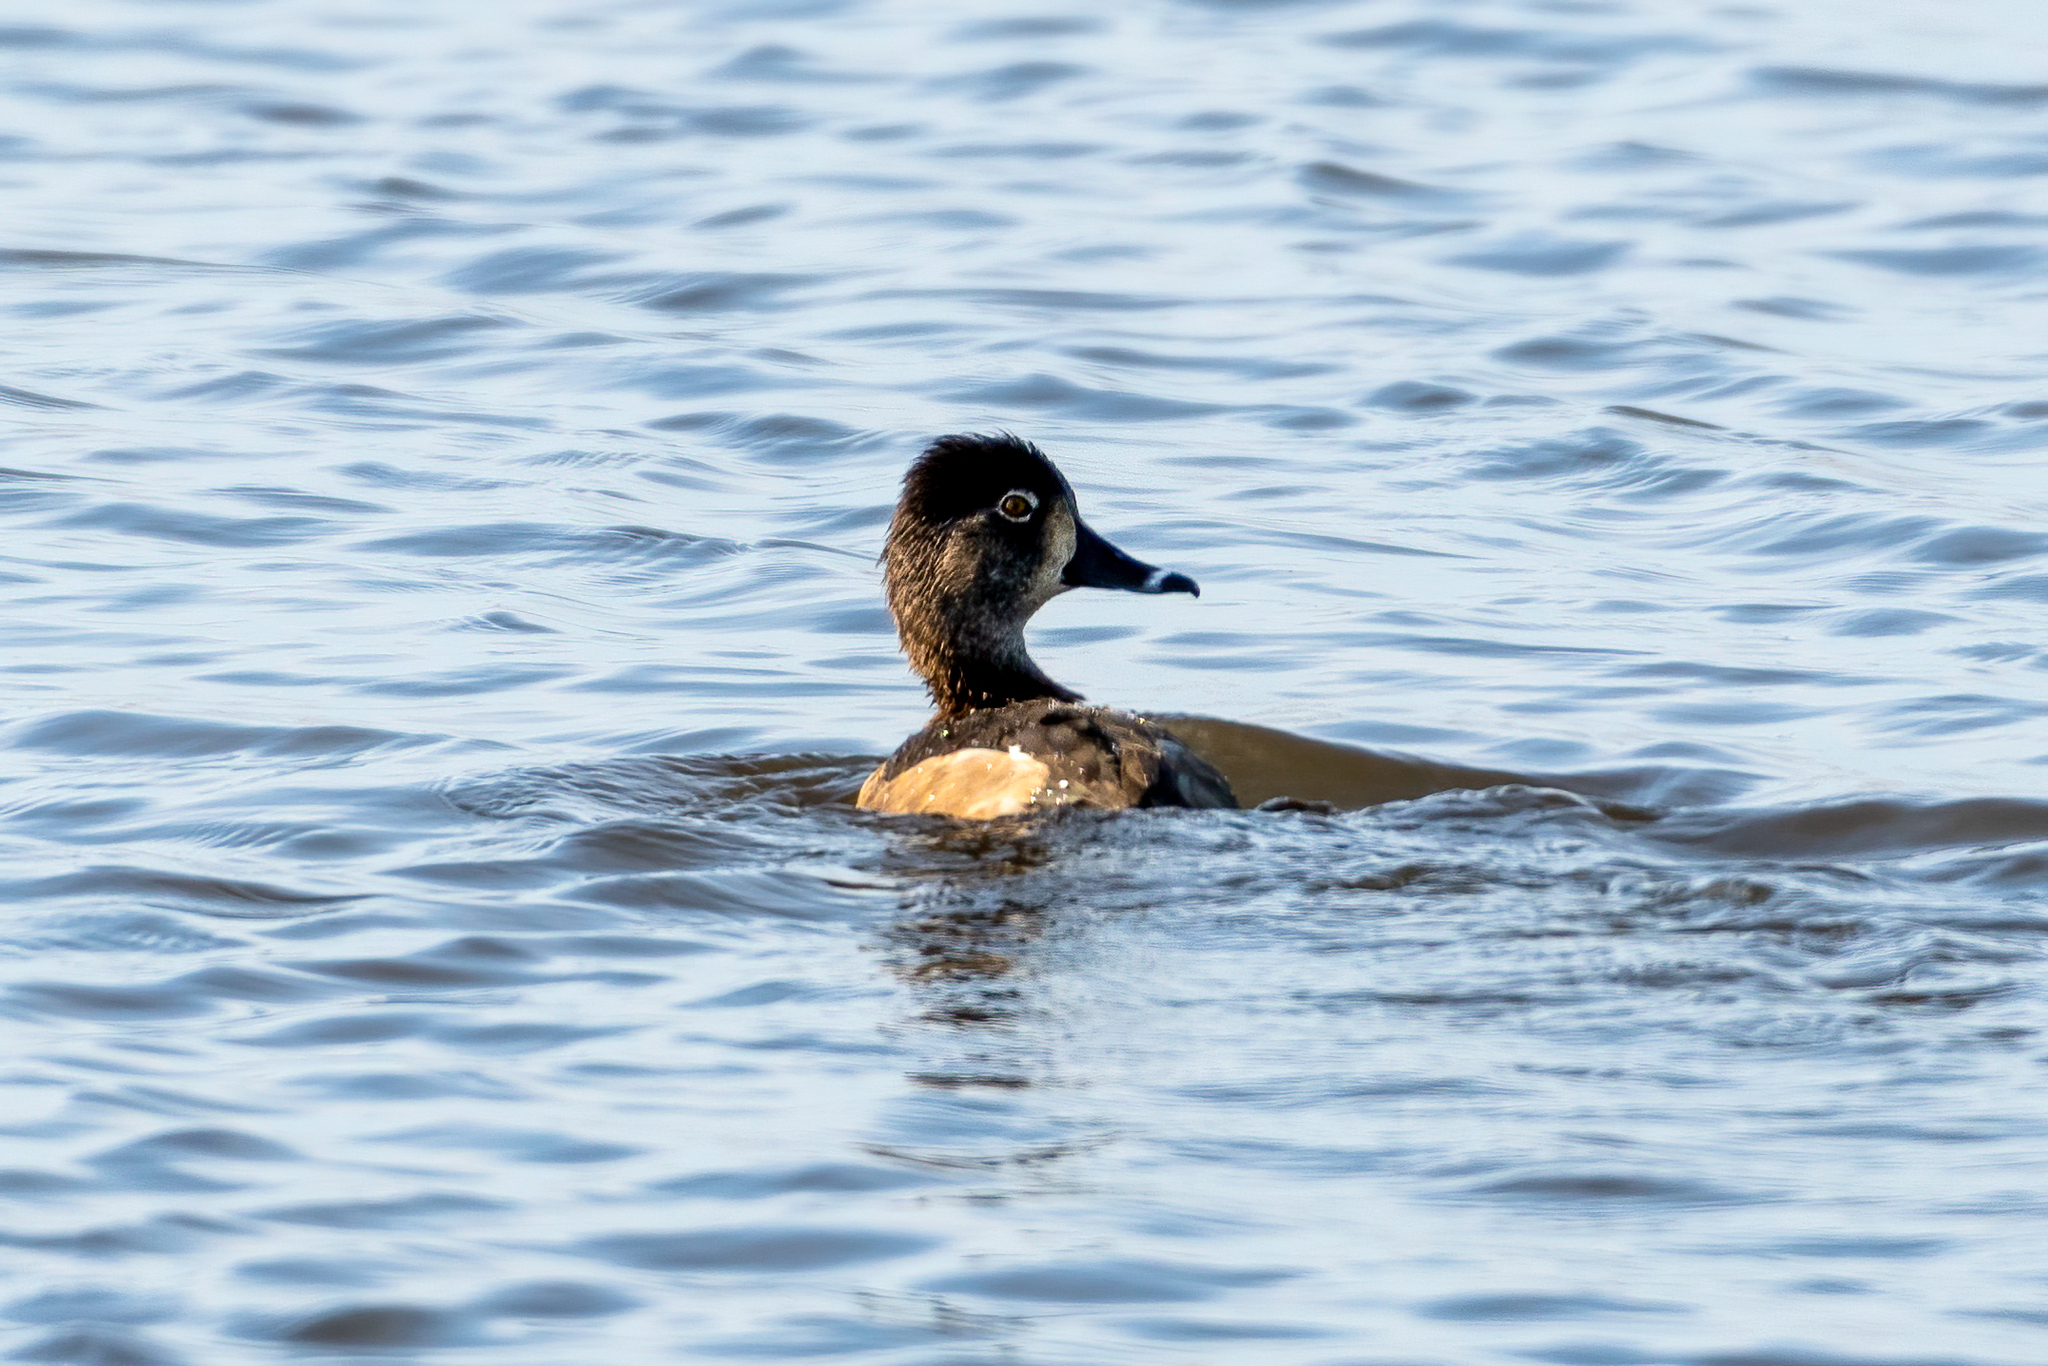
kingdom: Animalia
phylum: Chordata
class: Aves
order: Anseriformes
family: Anatidae
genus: Aythya
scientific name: Aythya collaris
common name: Ring-necked duck
